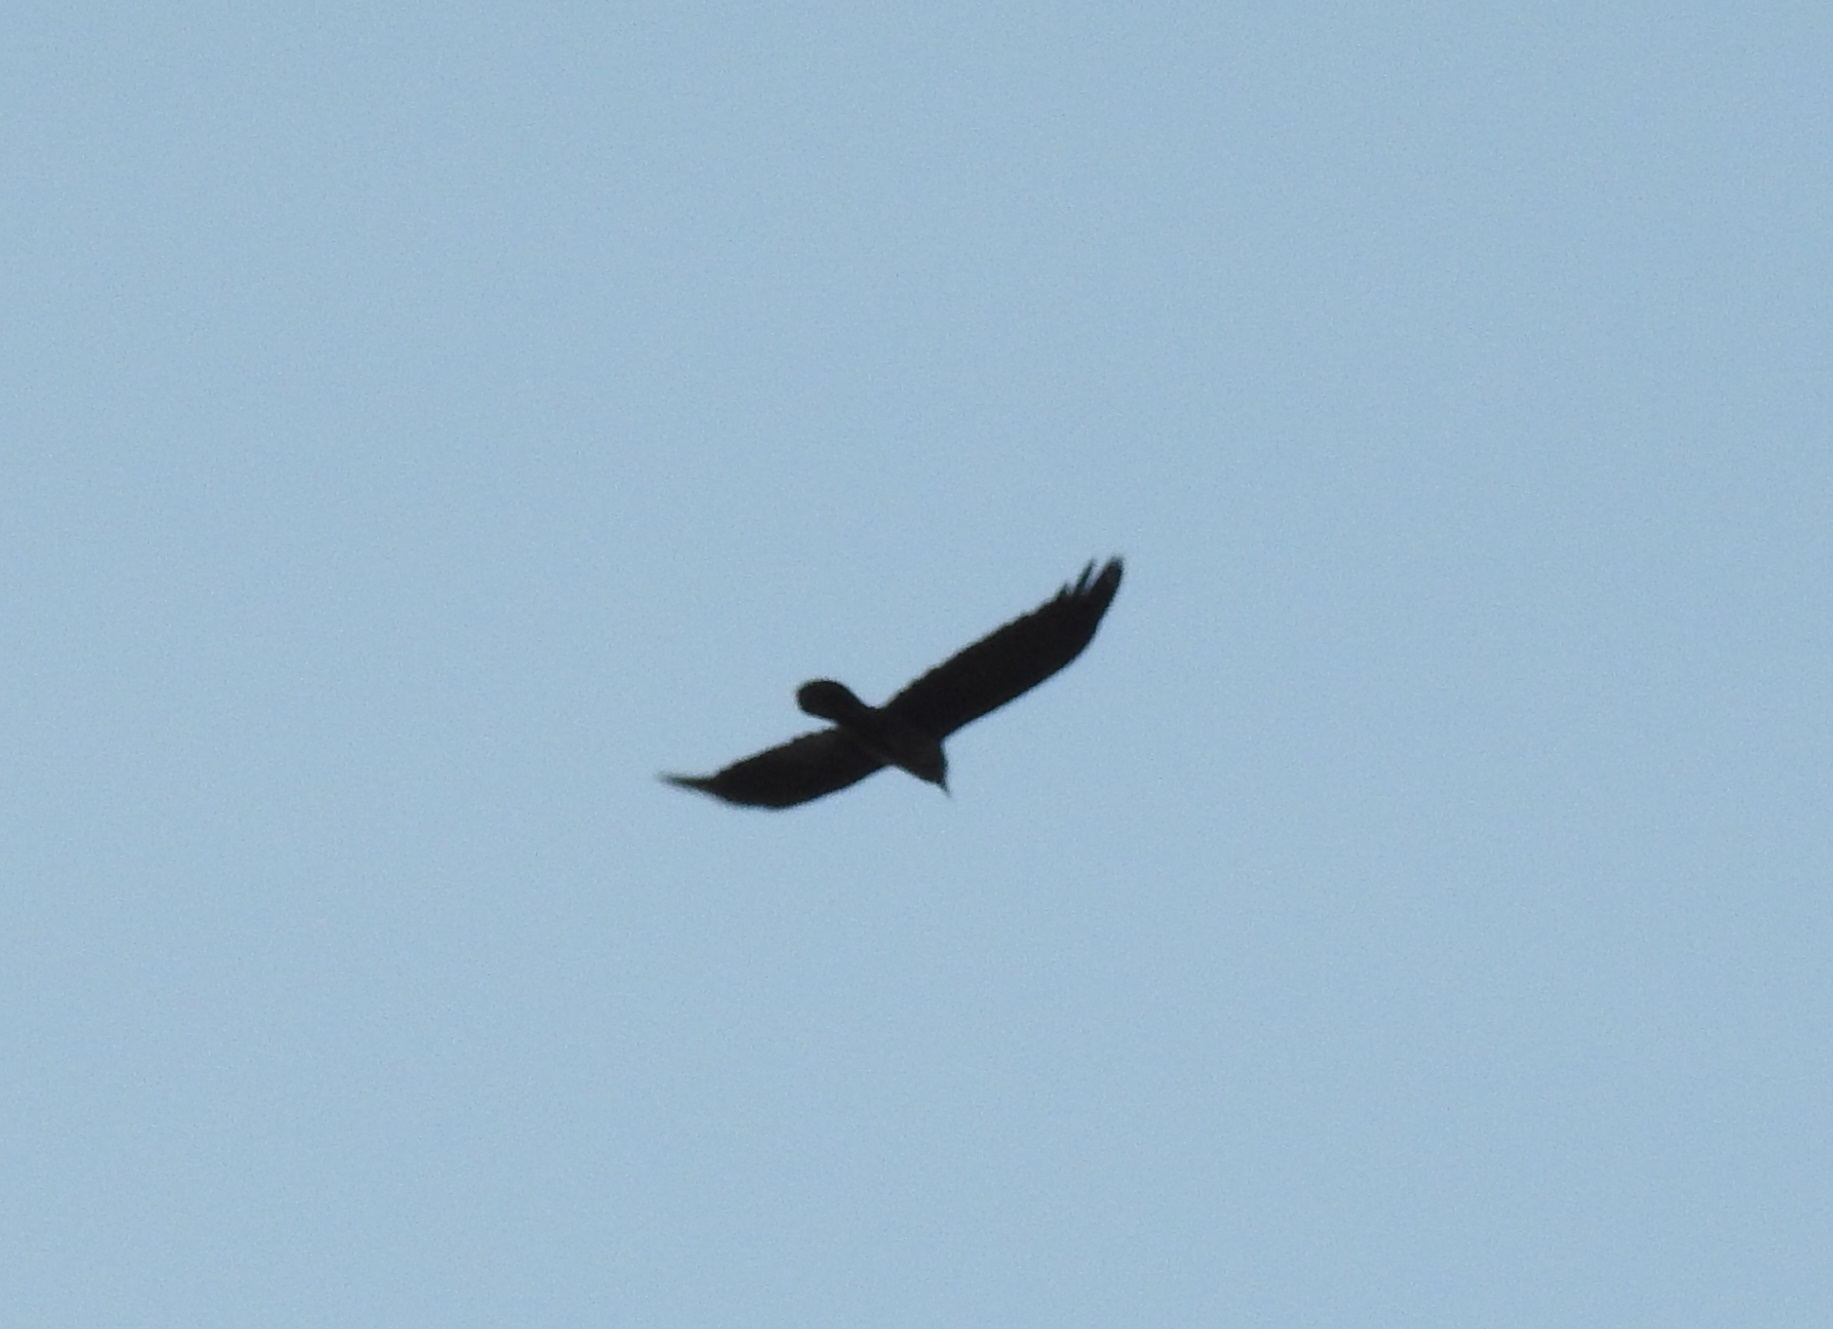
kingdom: Animalia
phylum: Chordata
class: Aves
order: Passeriformes
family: Corvidae
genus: Corvus
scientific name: Corvus ruficollis
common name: Brown-necked raven
